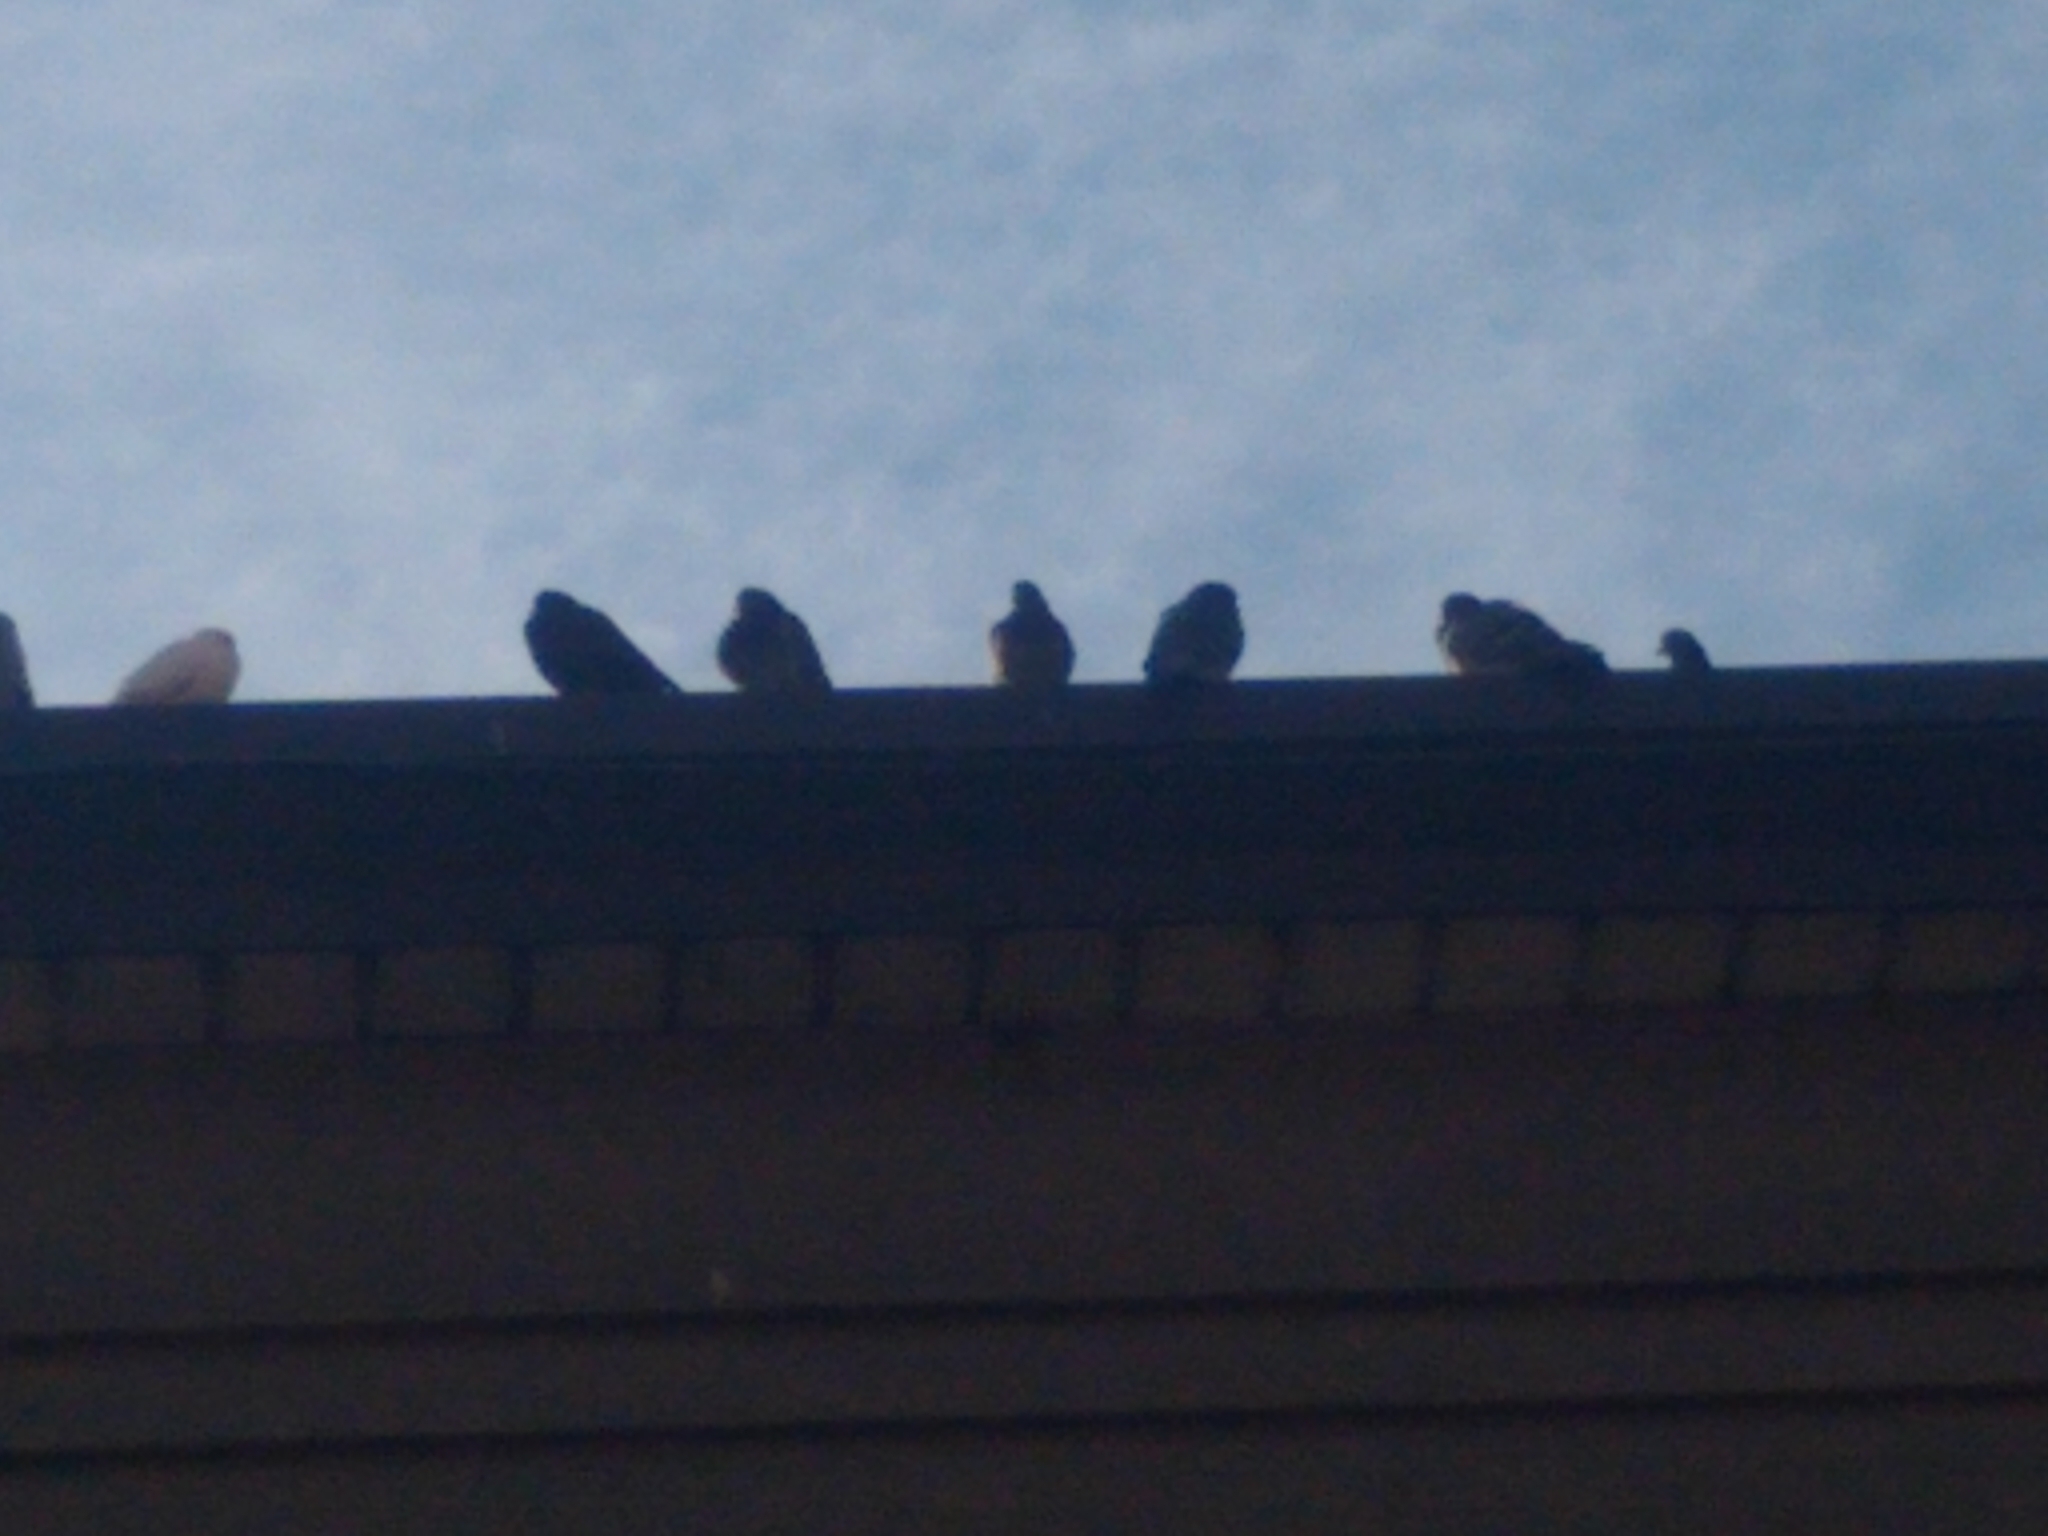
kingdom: Animalia
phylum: Chordata
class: Aves
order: Columbiformes
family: Columbidae
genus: Columba
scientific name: Columba livia
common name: Rock pigeon
